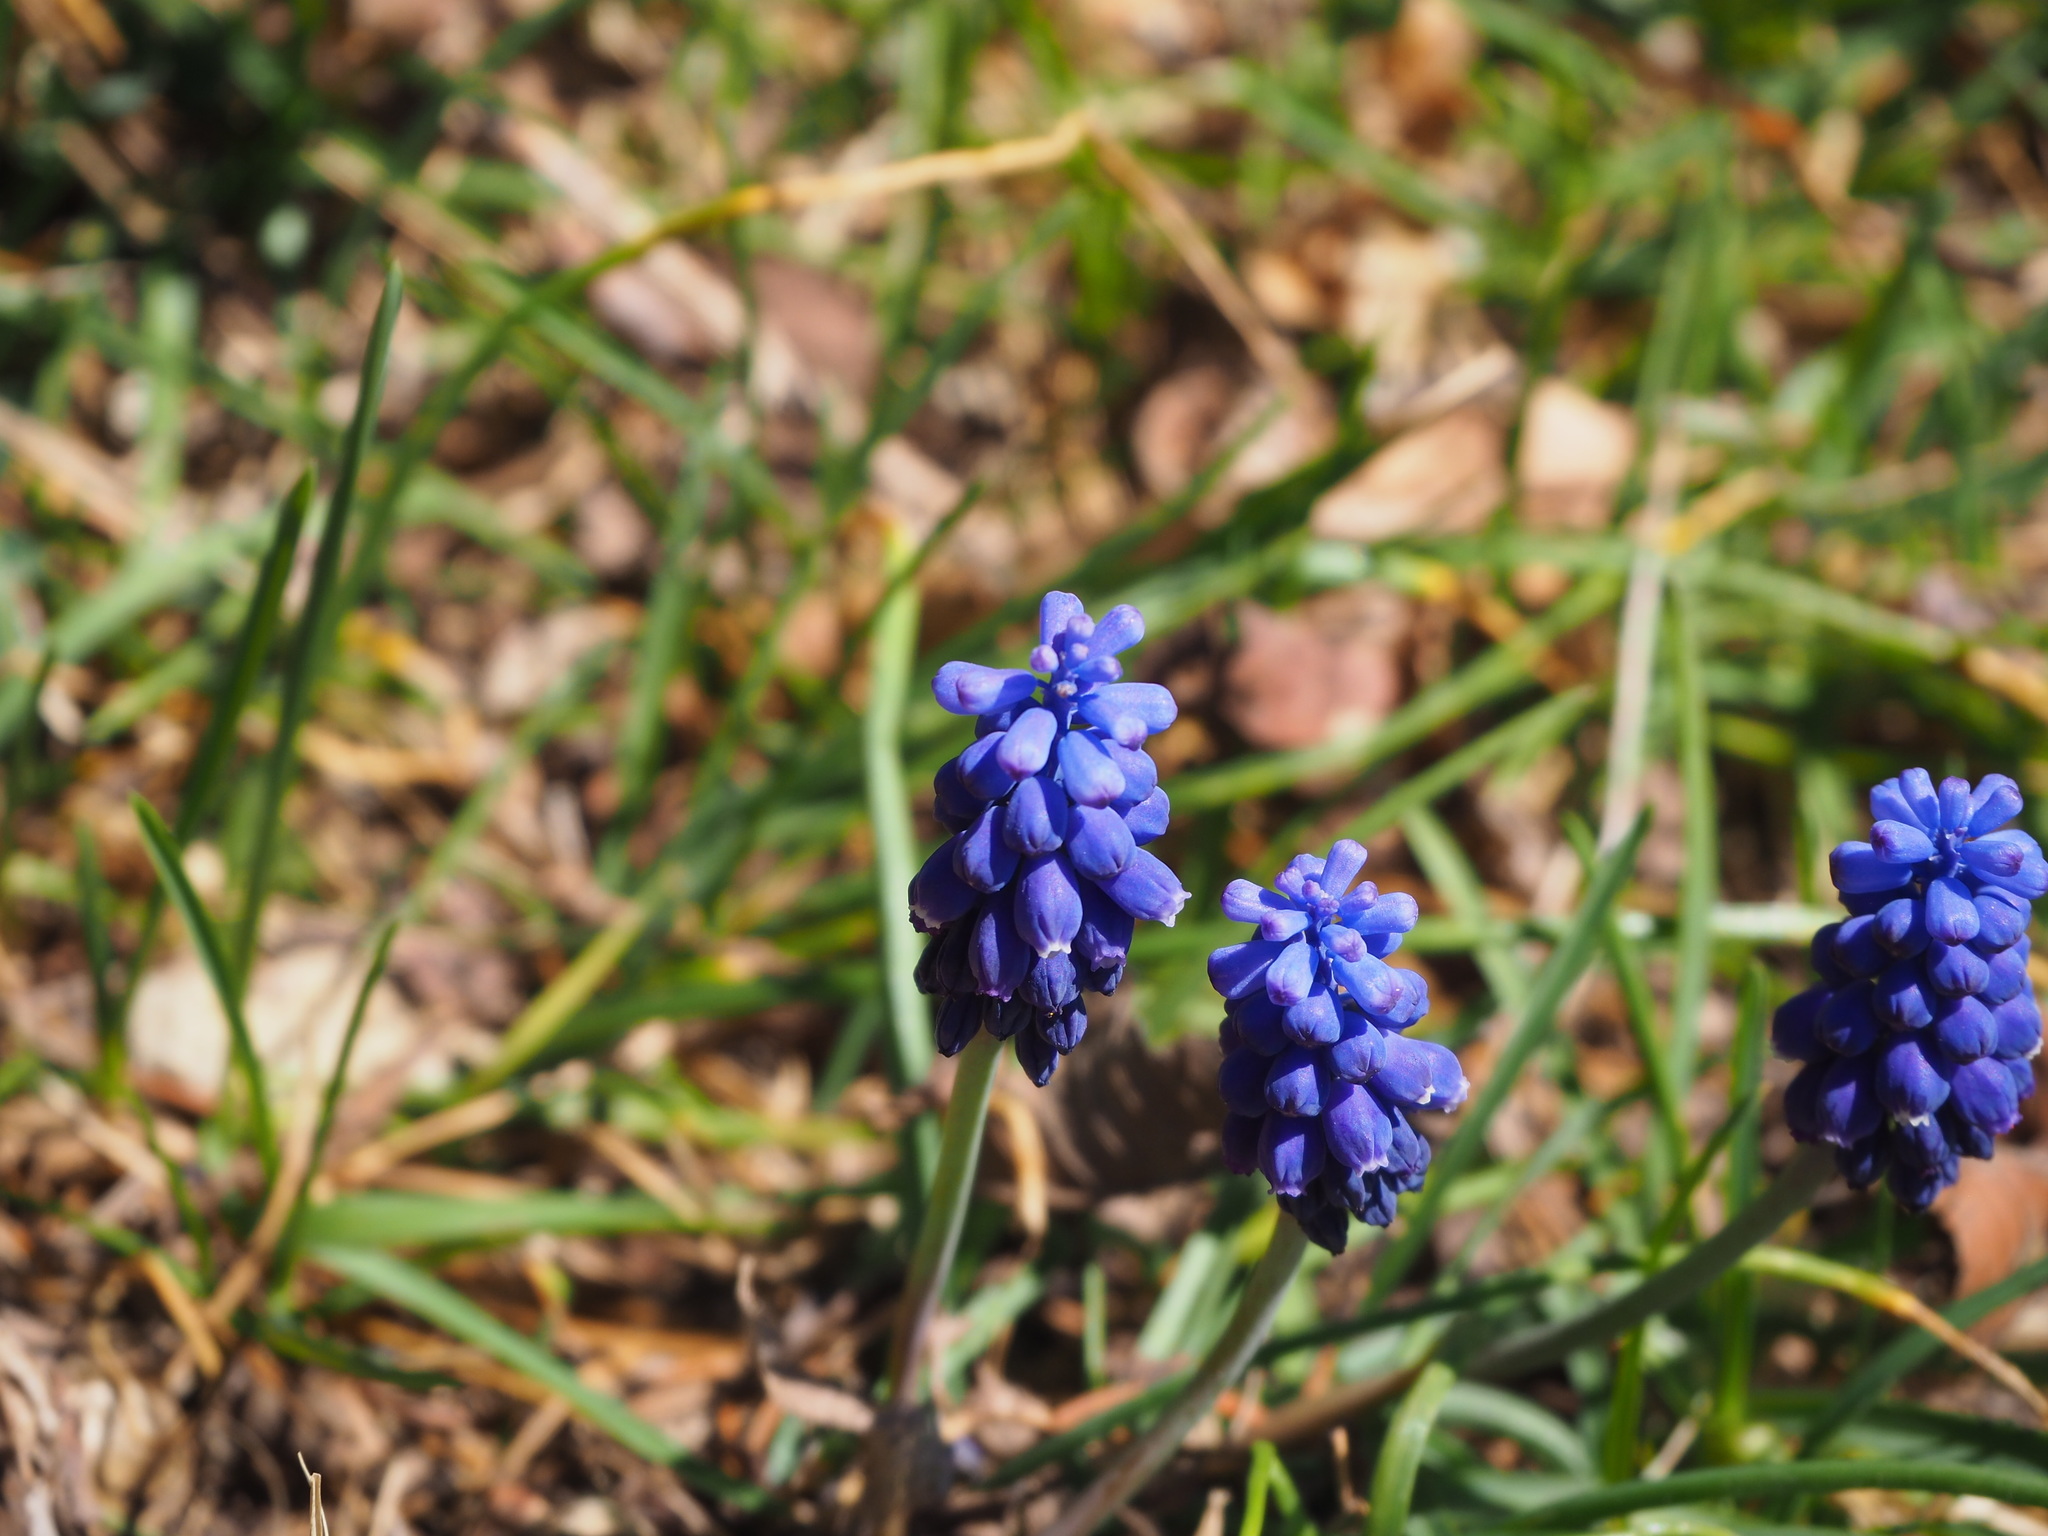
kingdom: Plantae
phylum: Tracheophyta
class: Liliopsida
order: Asparagales
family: Asparagaceae
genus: Muscari
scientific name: Muscari neglectum
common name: Grape-hyacinth
